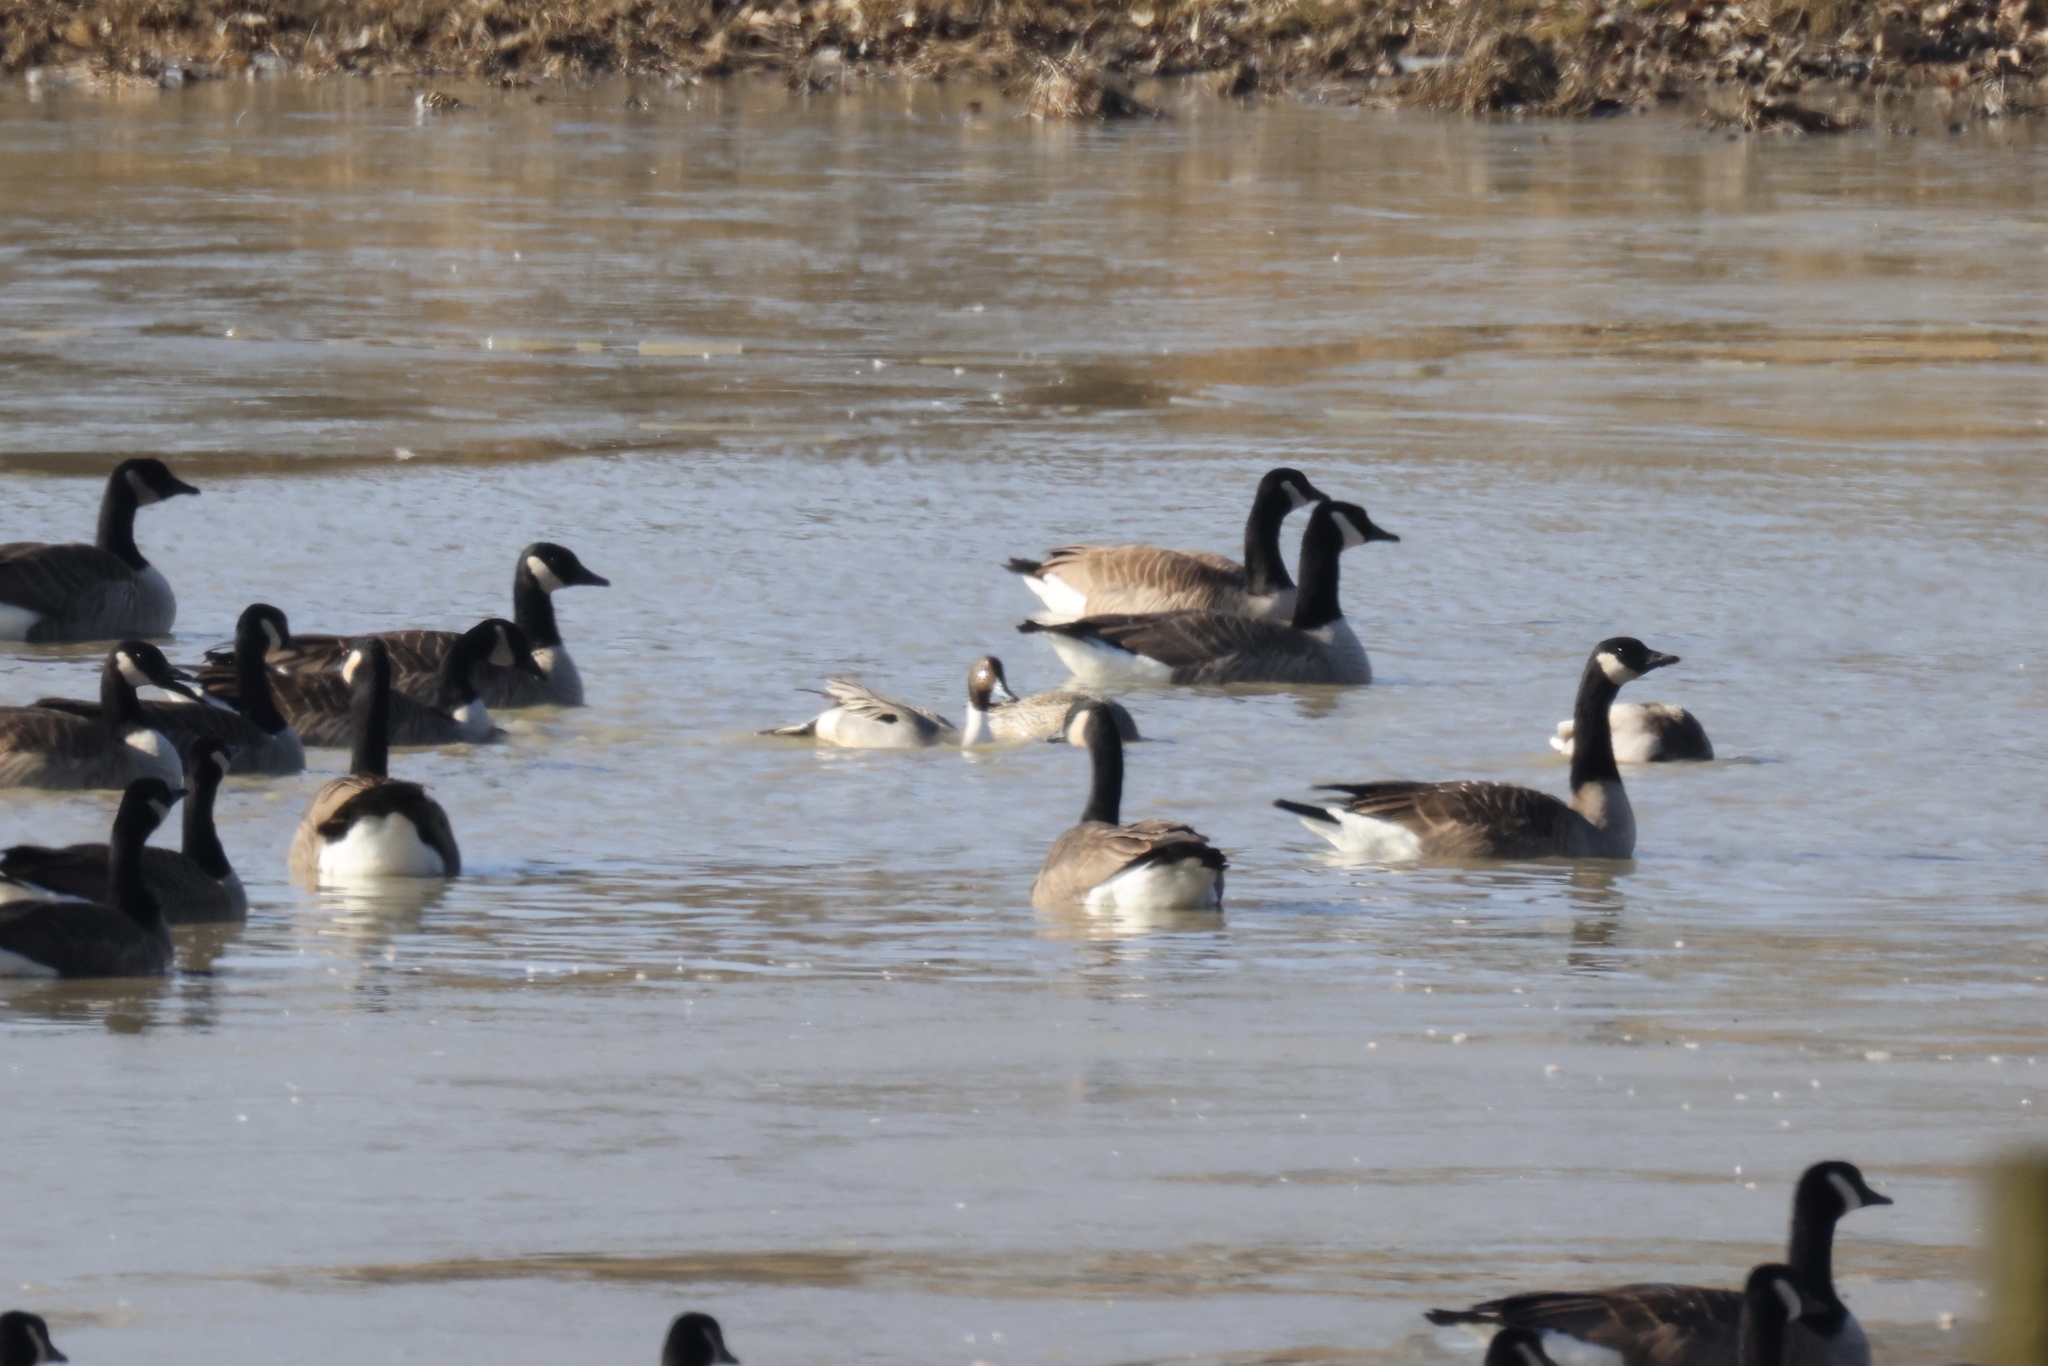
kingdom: Animalia
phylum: Chordata
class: Aves
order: Anseriformes
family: Anatidae
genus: Anas
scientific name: Anas acuta
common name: Northern pintail
